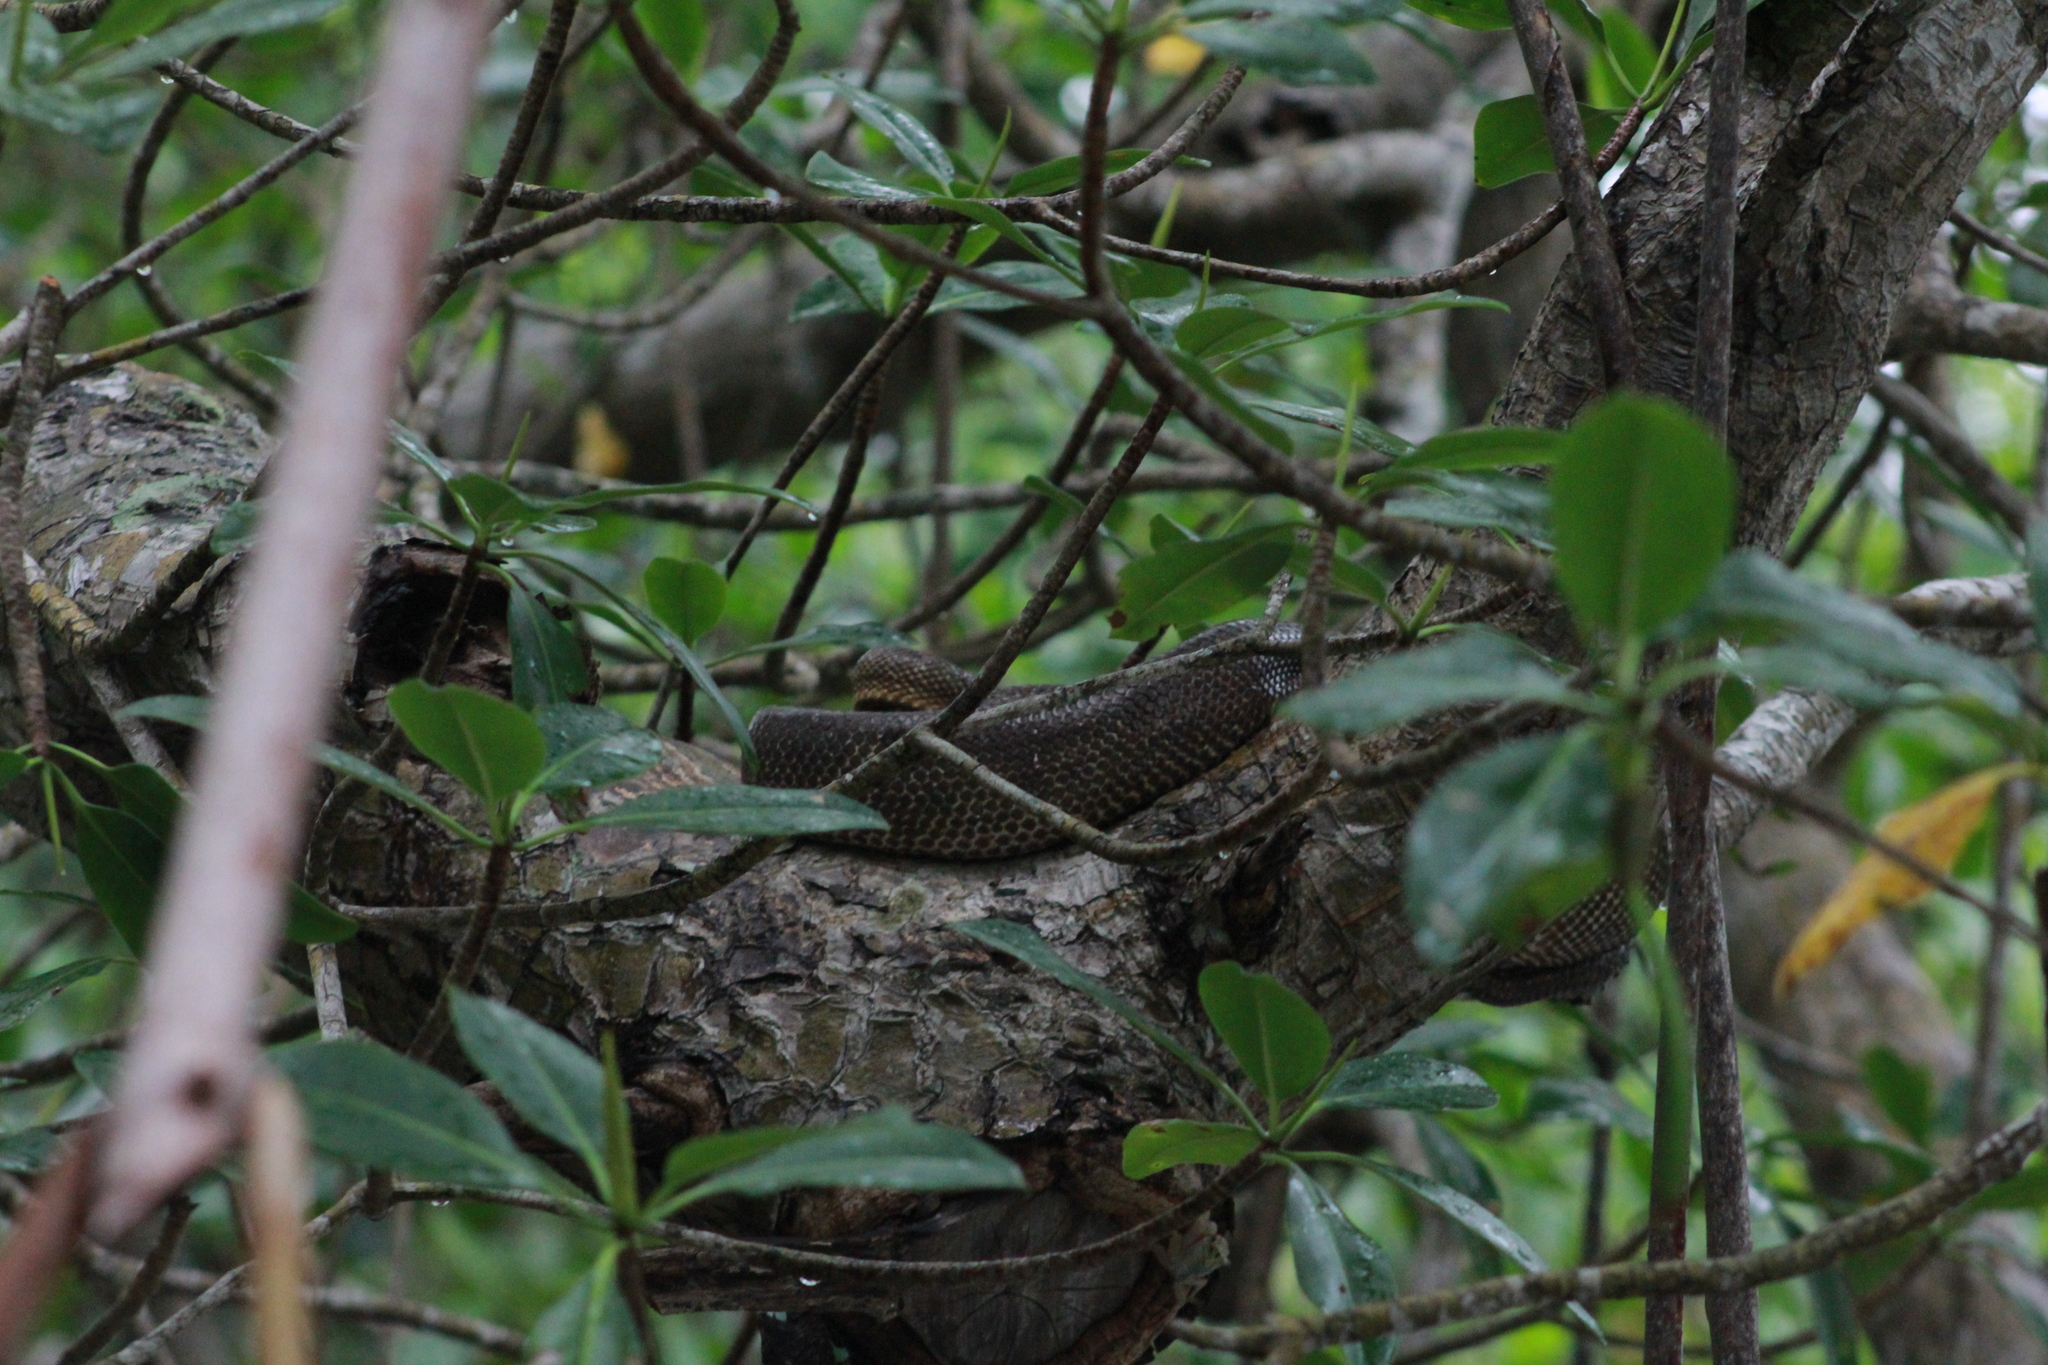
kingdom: Animalia
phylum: Chordata
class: Squamata
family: Boidae
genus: Corallus
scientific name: Corallus ruschenbergerii
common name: Dormilona
